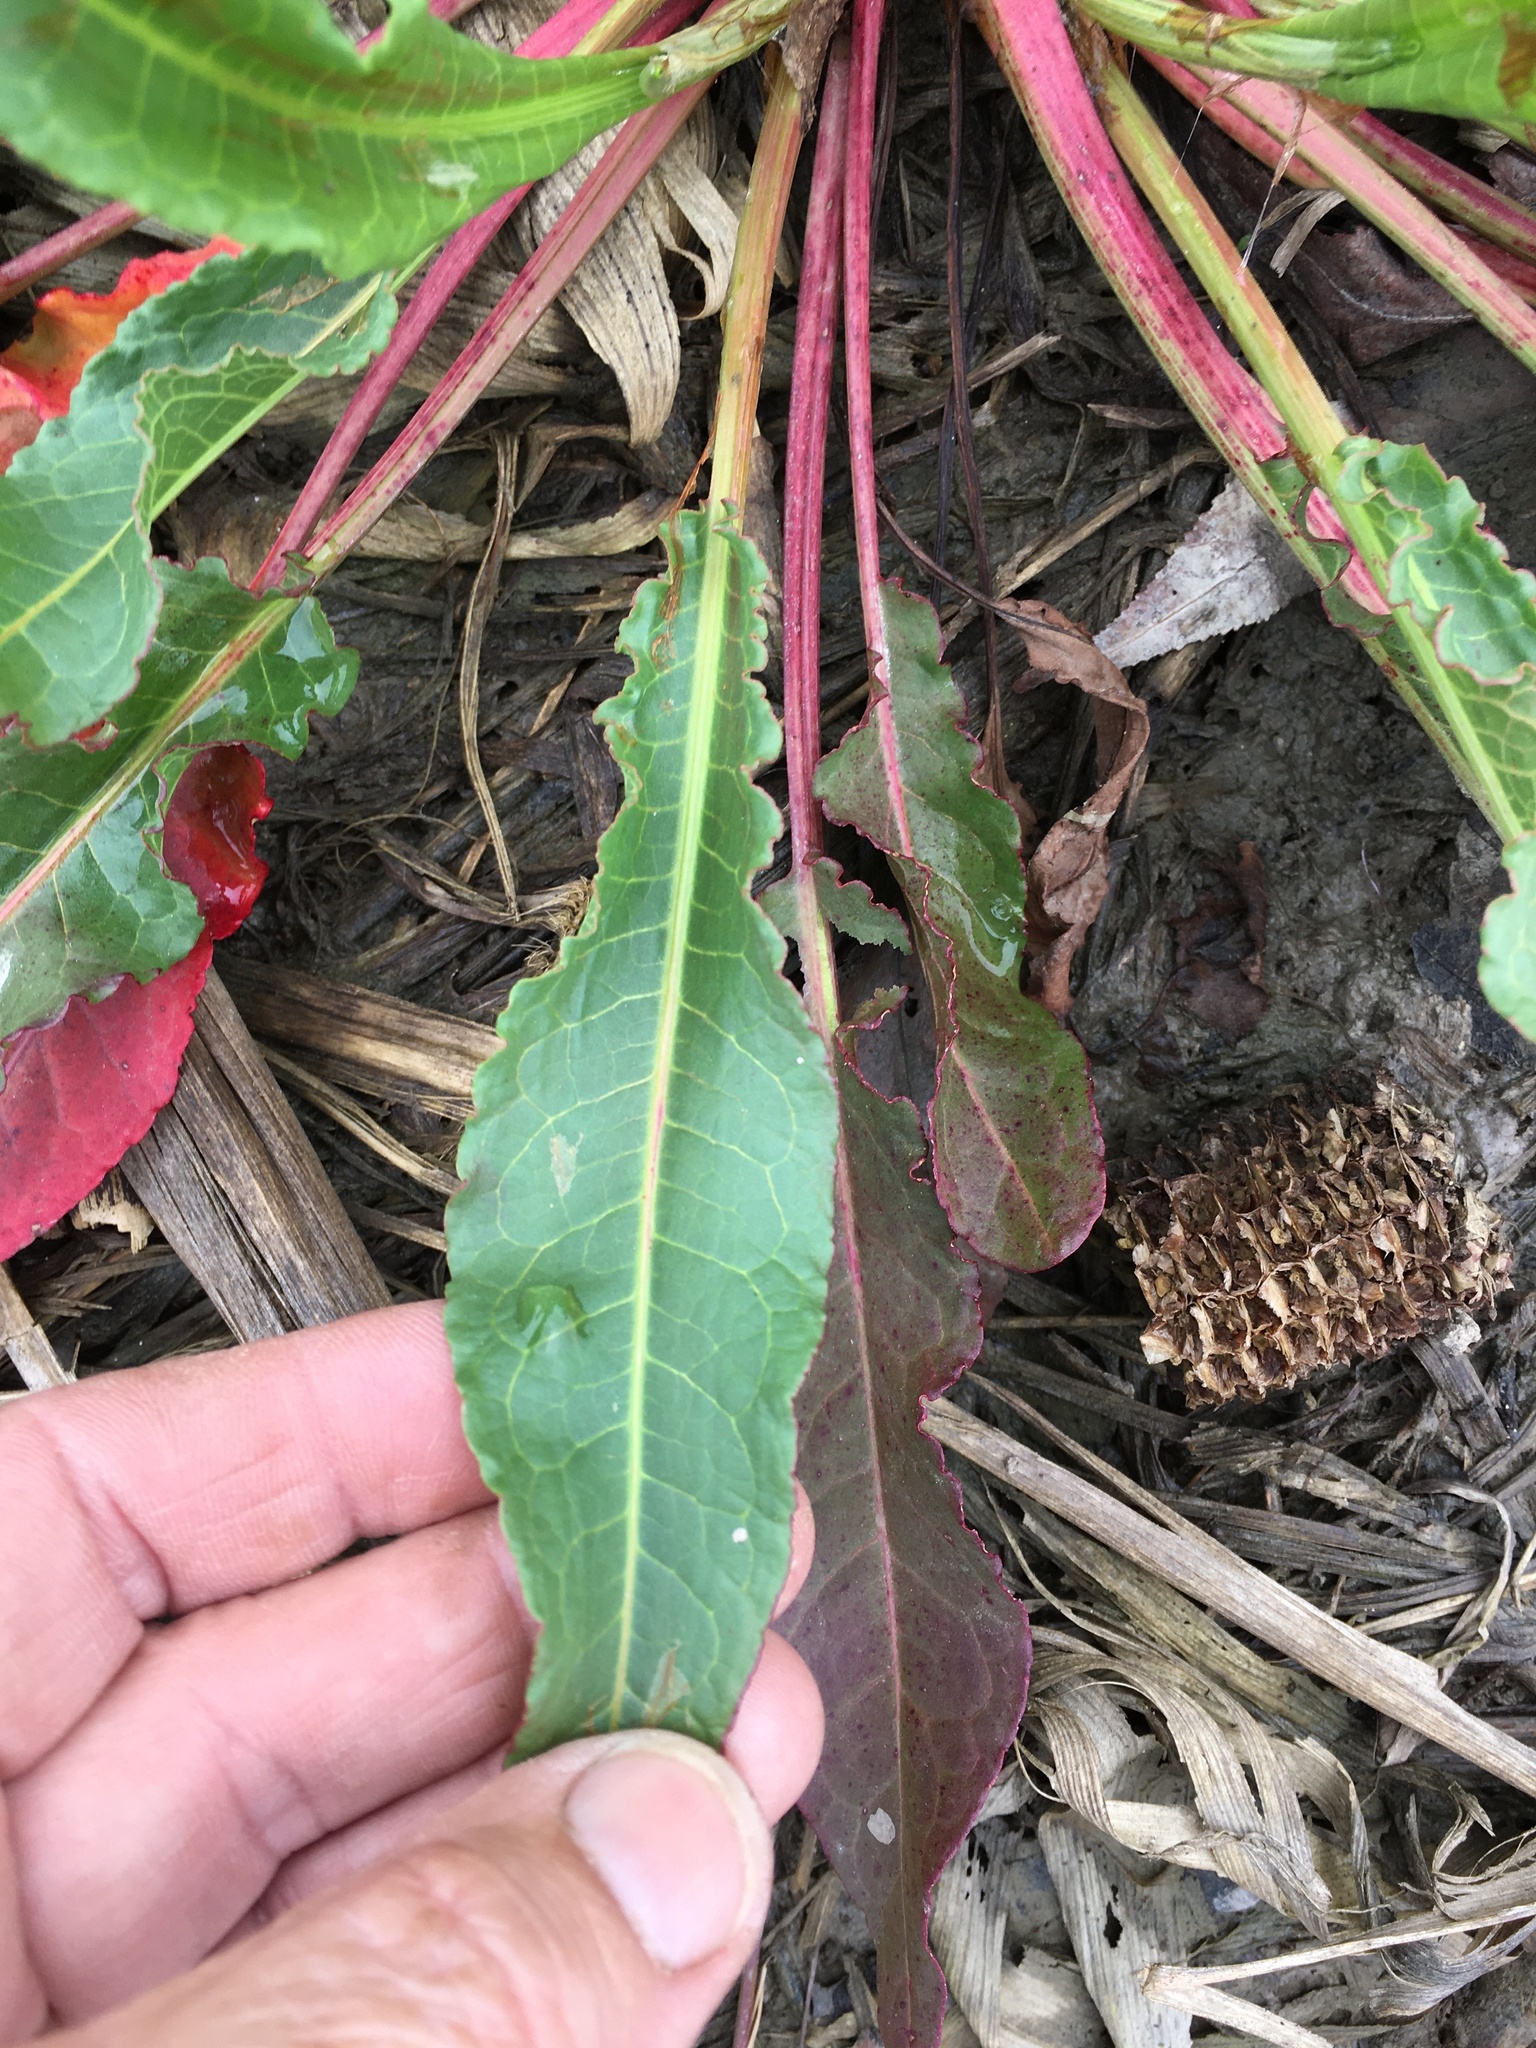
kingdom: Plantae
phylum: Tracheophyta
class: Magnoliopsida
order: Caryophyllales
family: Polygonaceae
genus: Rumex
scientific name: Rumex crispus
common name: Curled dock
